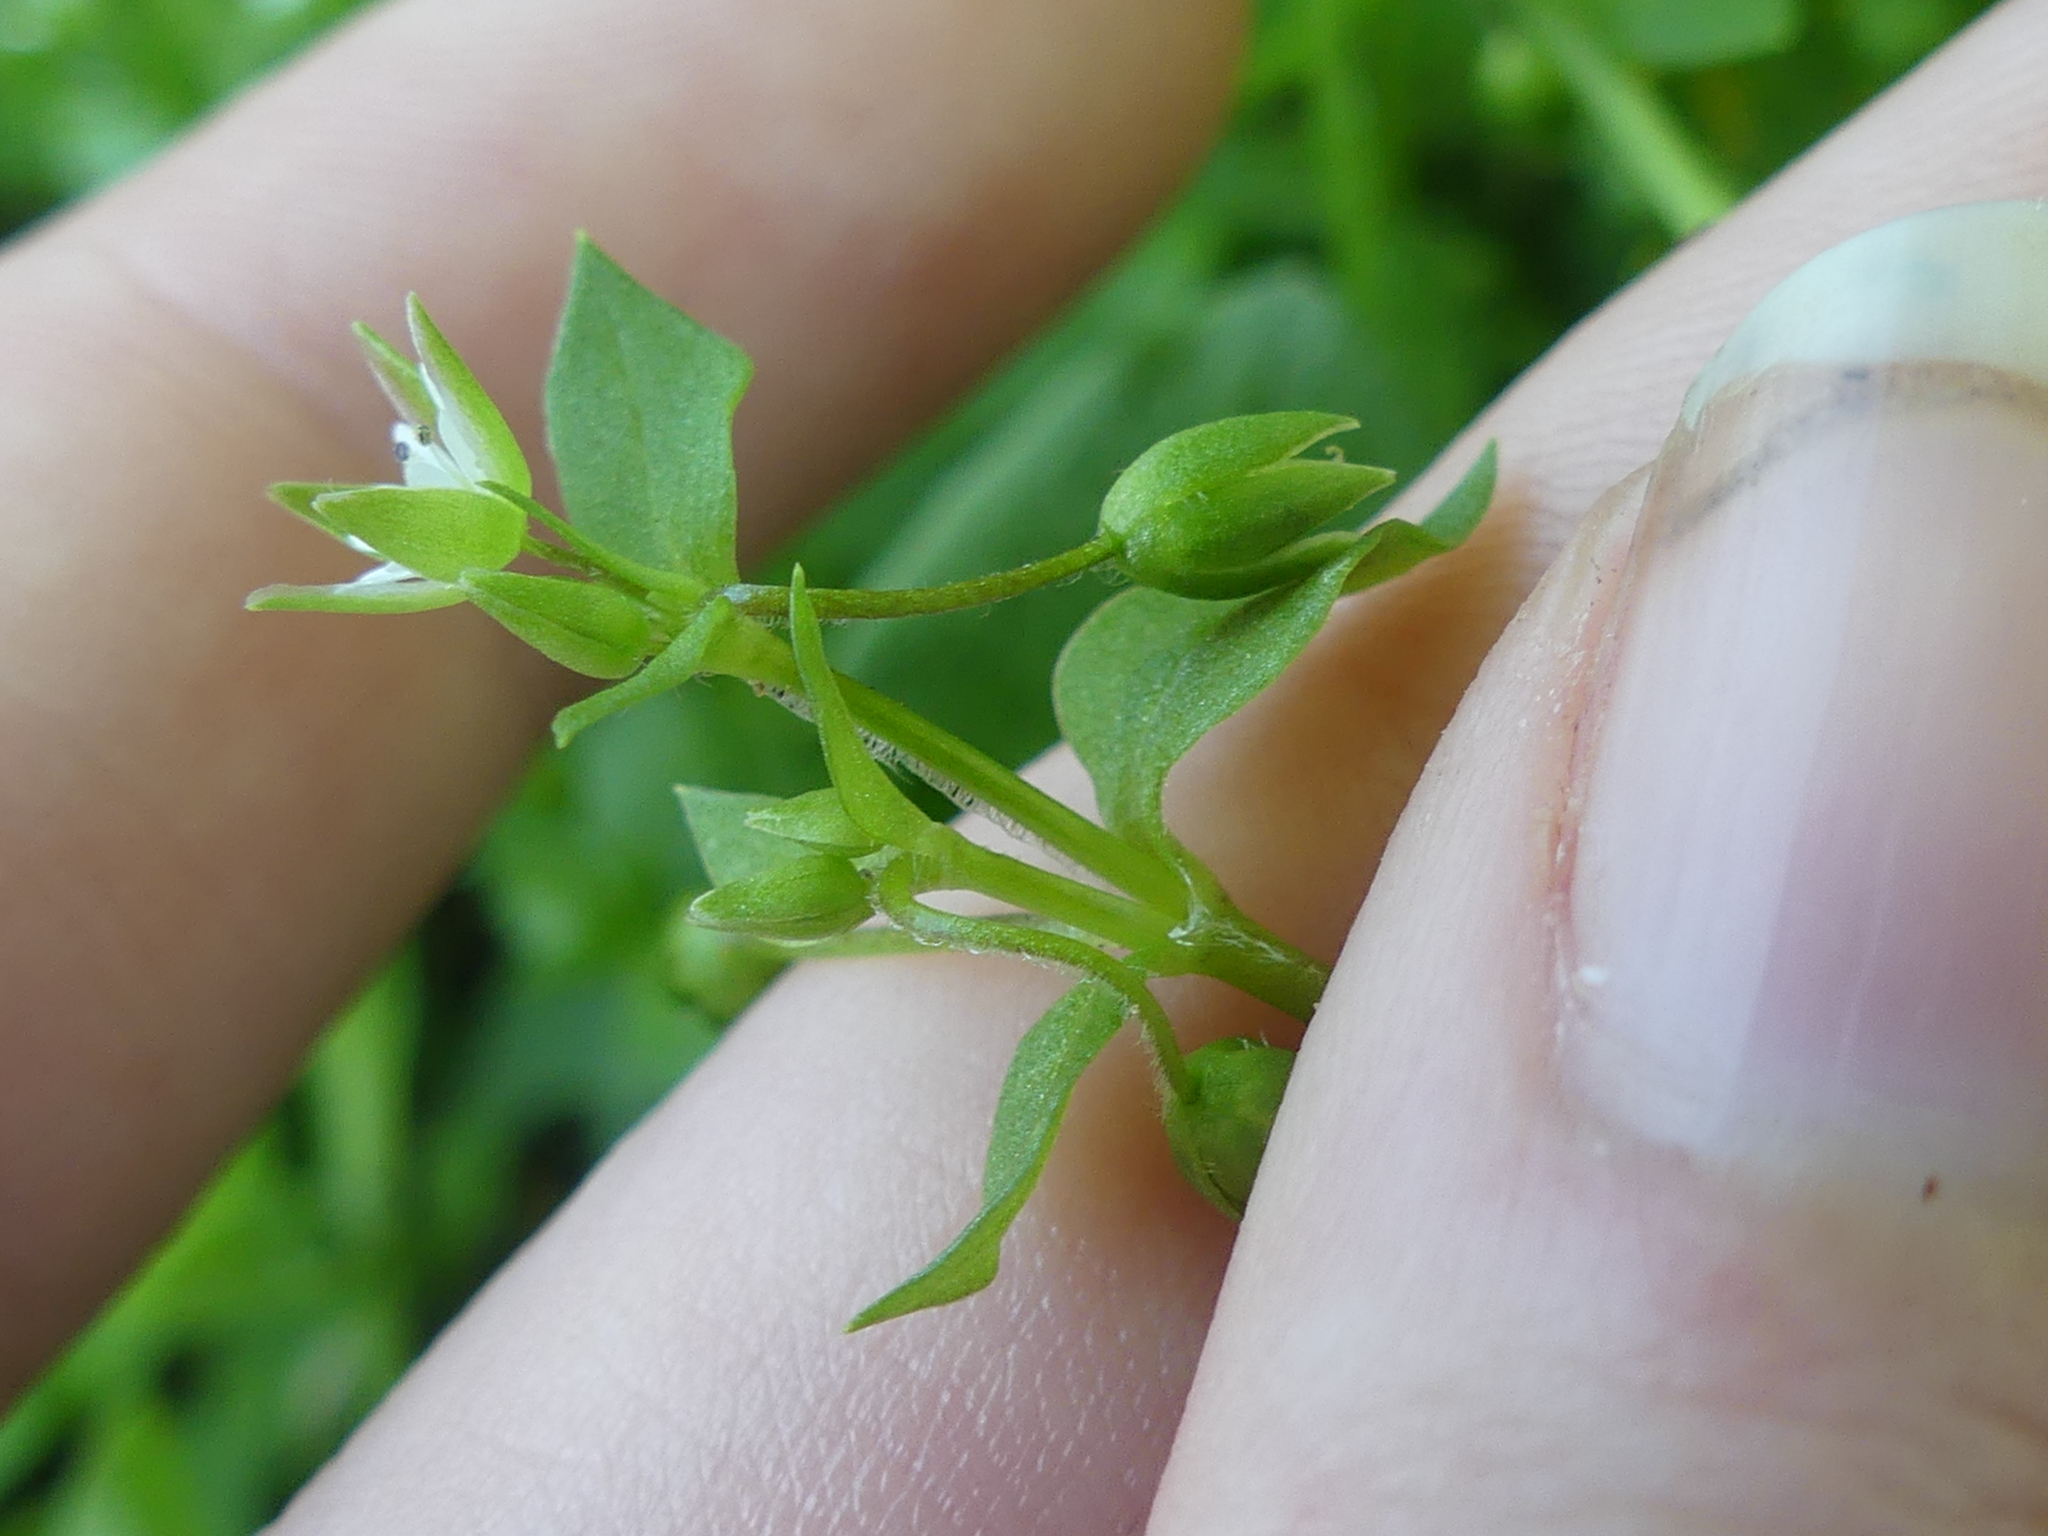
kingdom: Plantae
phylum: Tracheophyta
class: Magnoliopsida
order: Caryophyllales
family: Caryophyllaceae
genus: Stellaria
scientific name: Stellaria media
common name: Common chickweed
